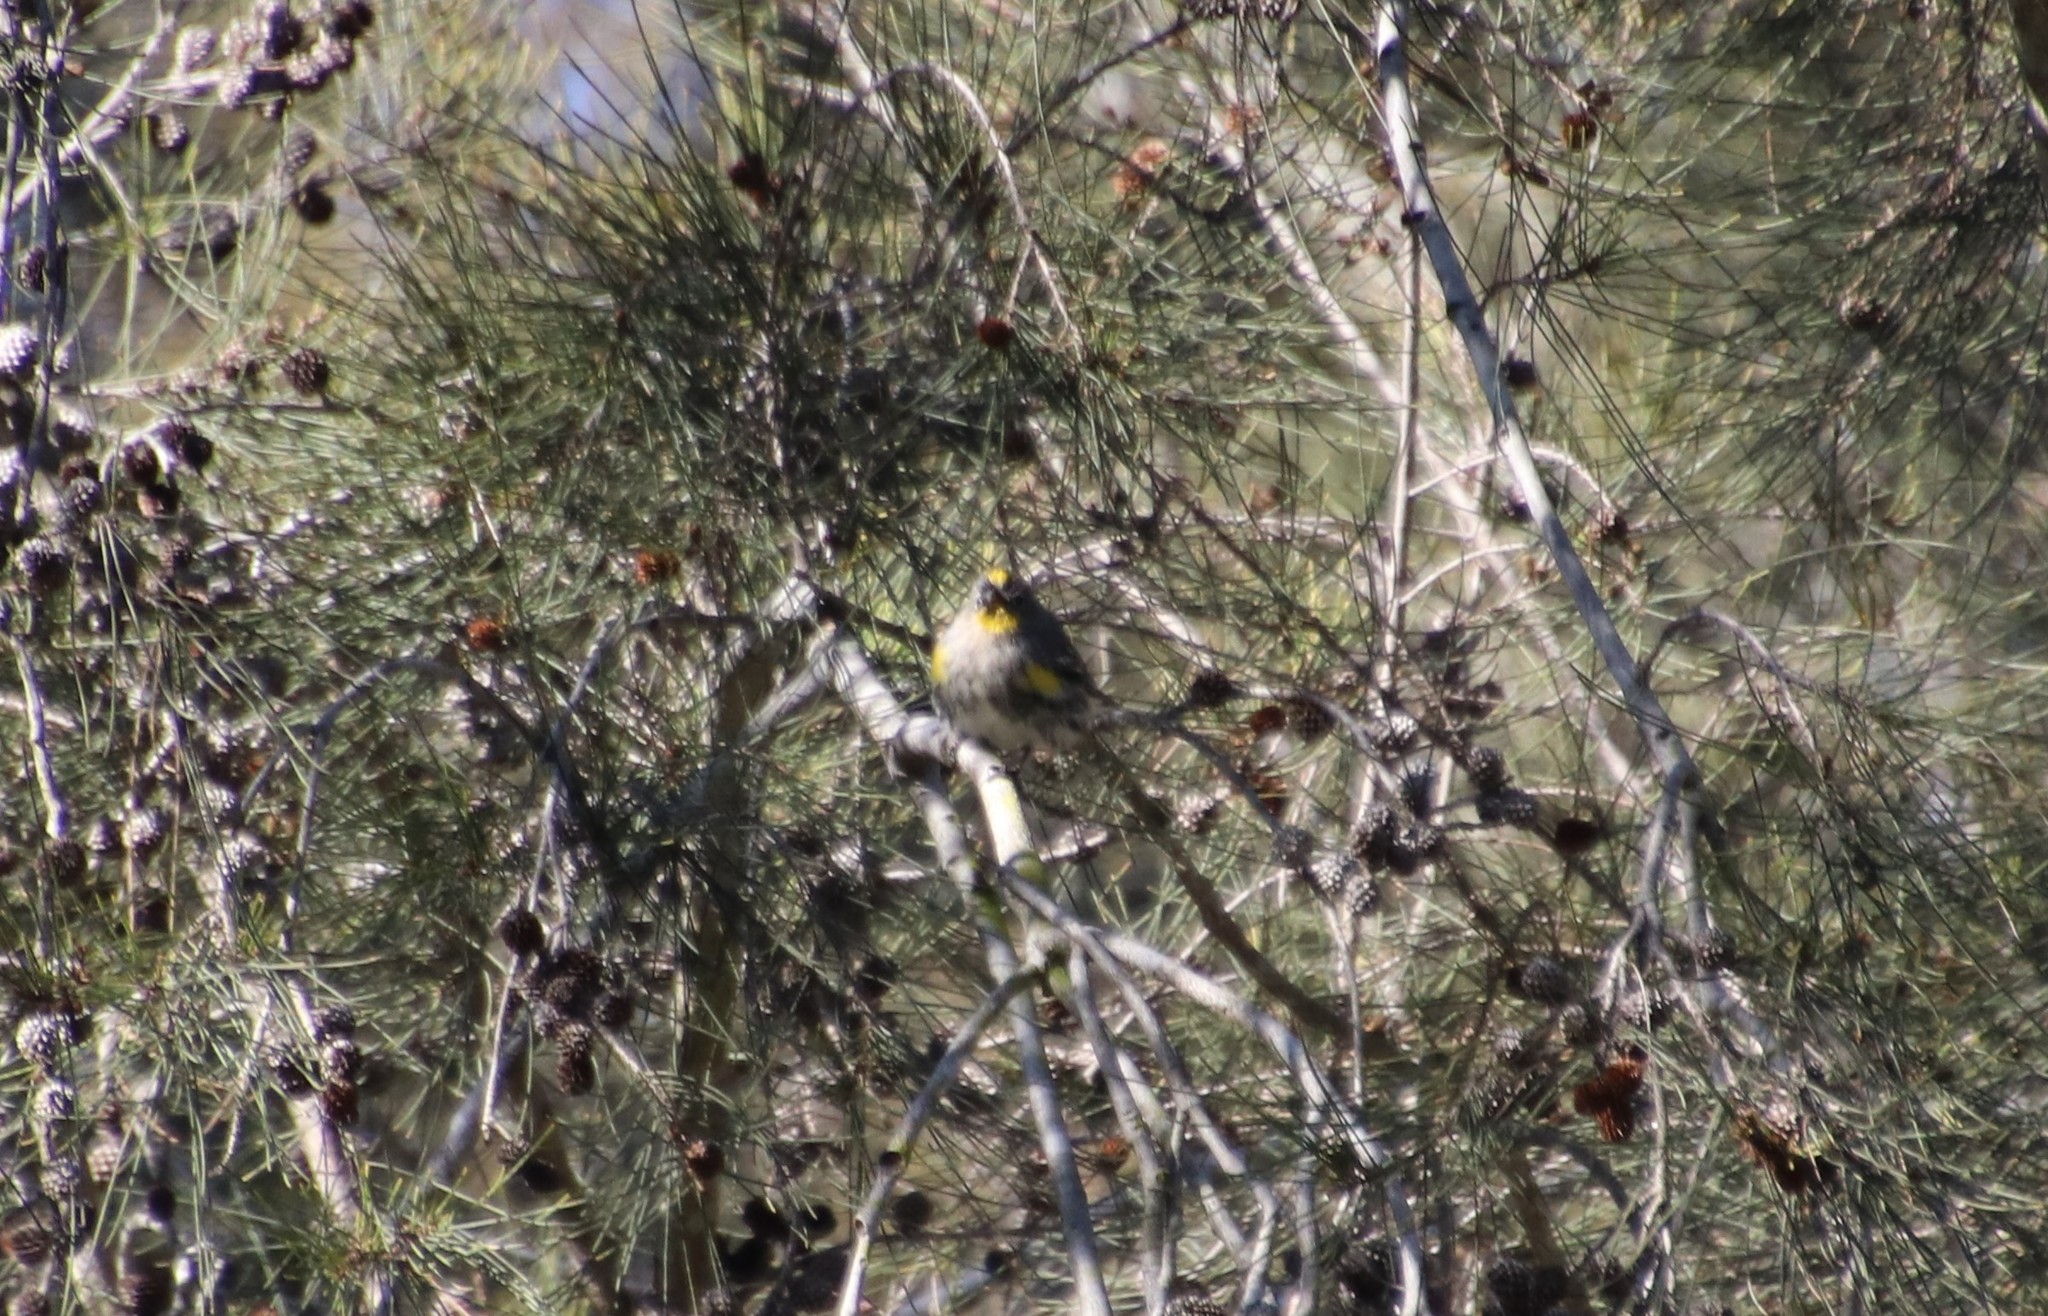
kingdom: Animalia
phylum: Chordata
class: Aves
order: Passeriformes
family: Parulidae
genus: Setophaga
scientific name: Setophaga auduboni
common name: Audubon's warbler
